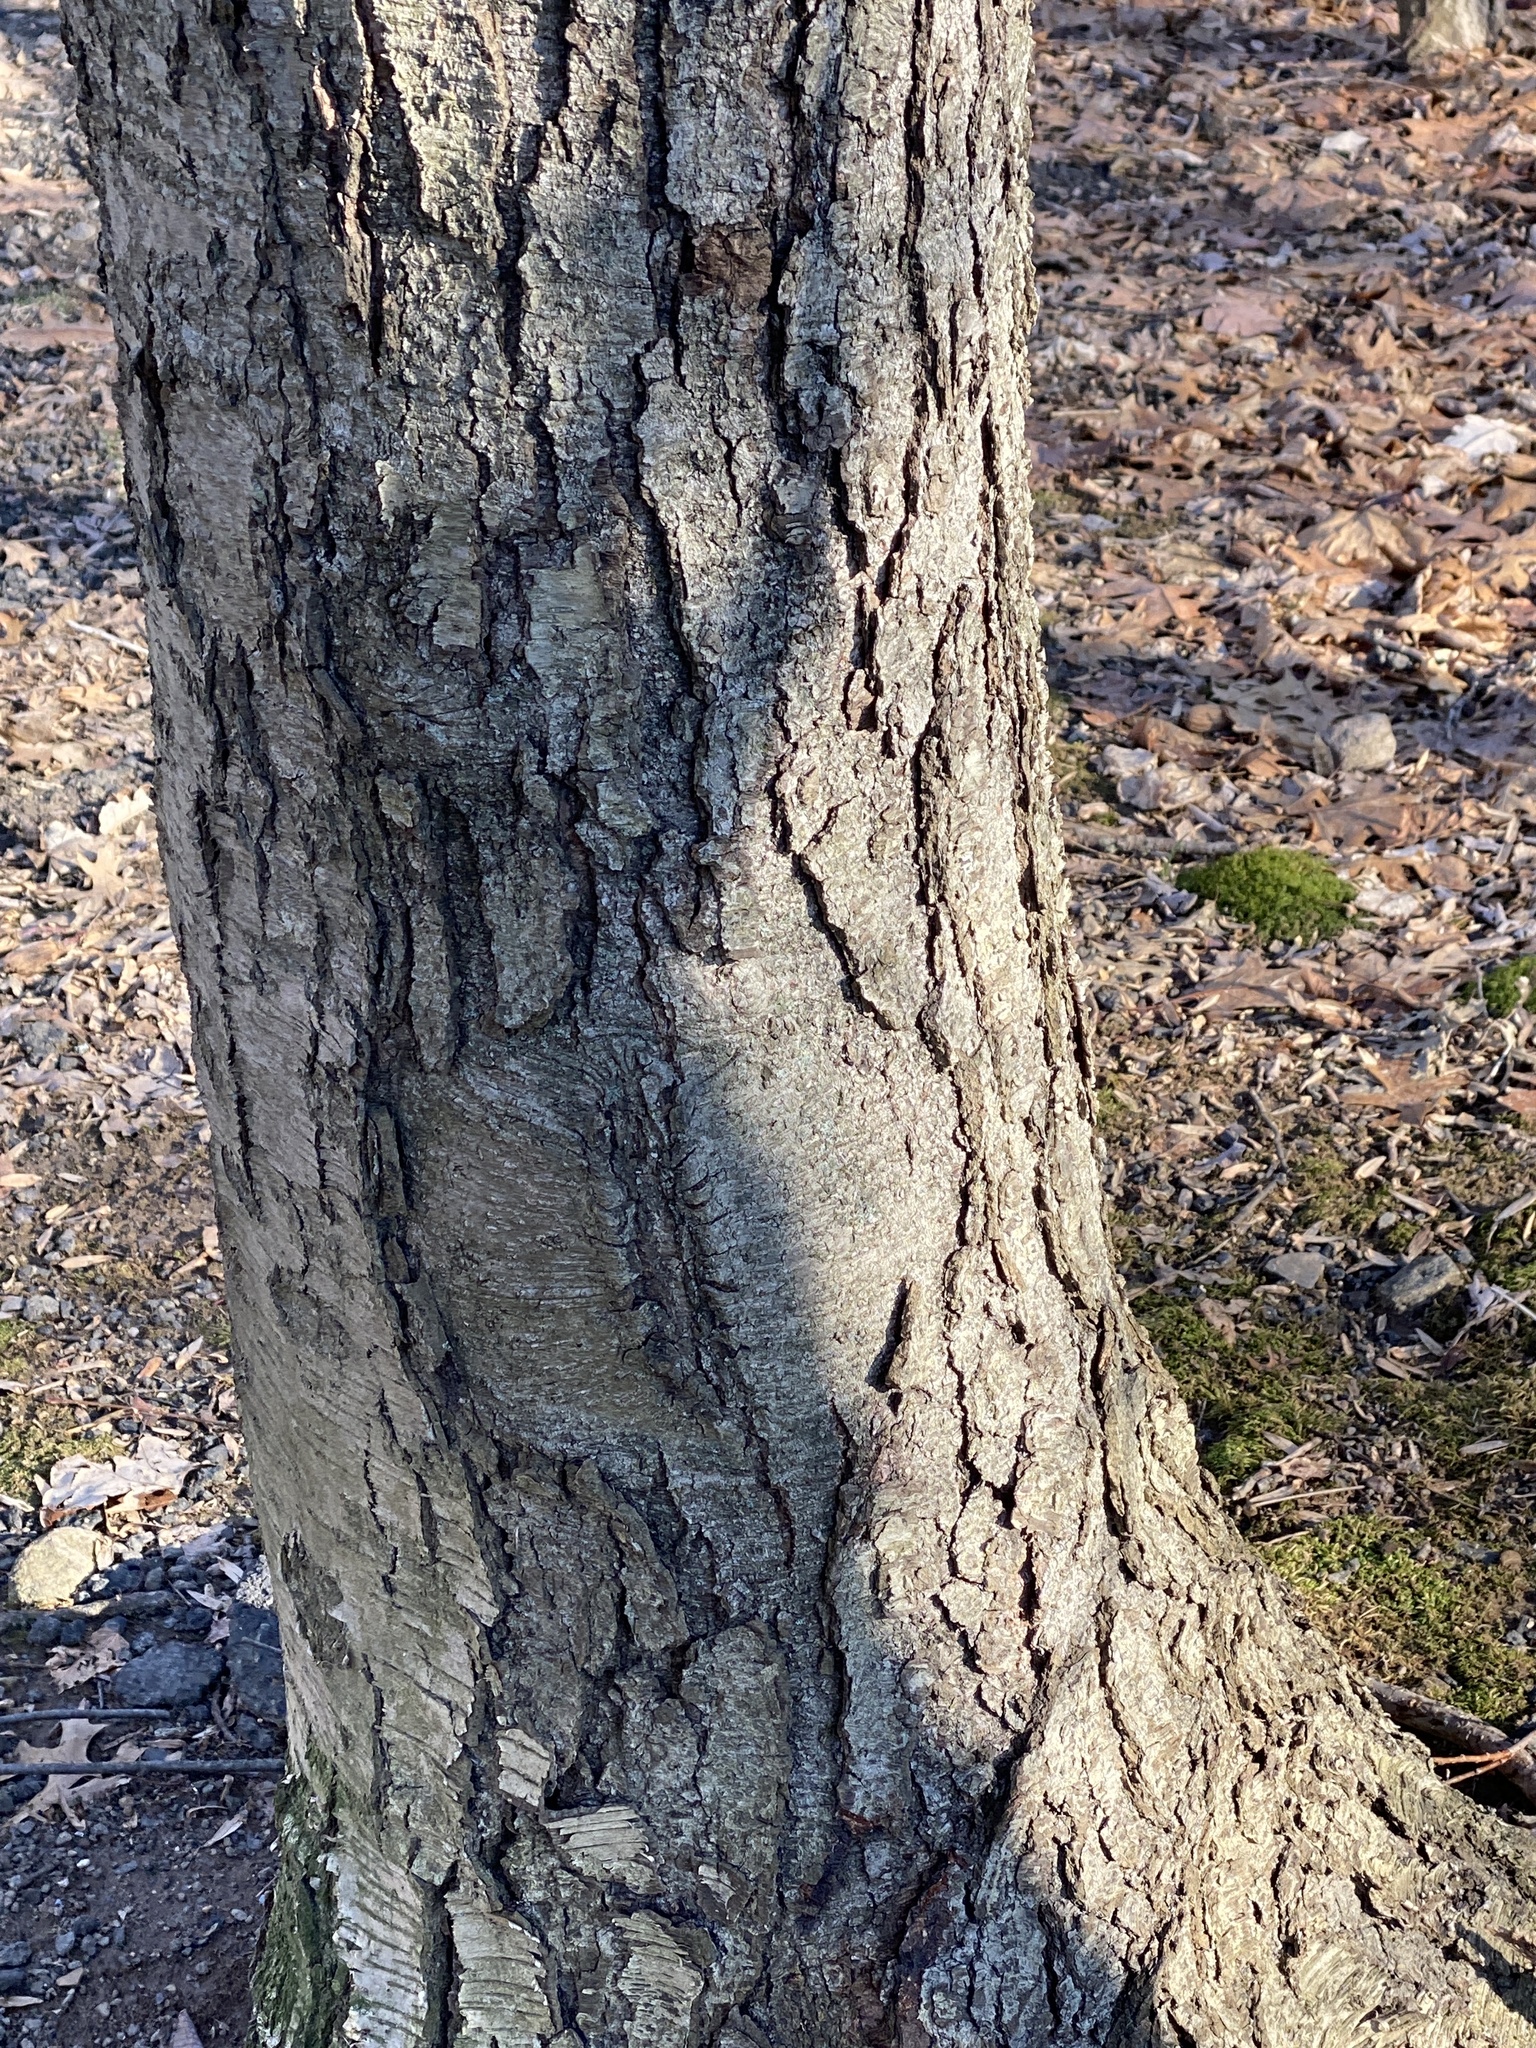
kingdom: Plantae
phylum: Tracheophyta
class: Magnoliopsida
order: Fagales
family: Betulaceae
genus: Betula
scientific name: Betula lenta
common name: Black birch
